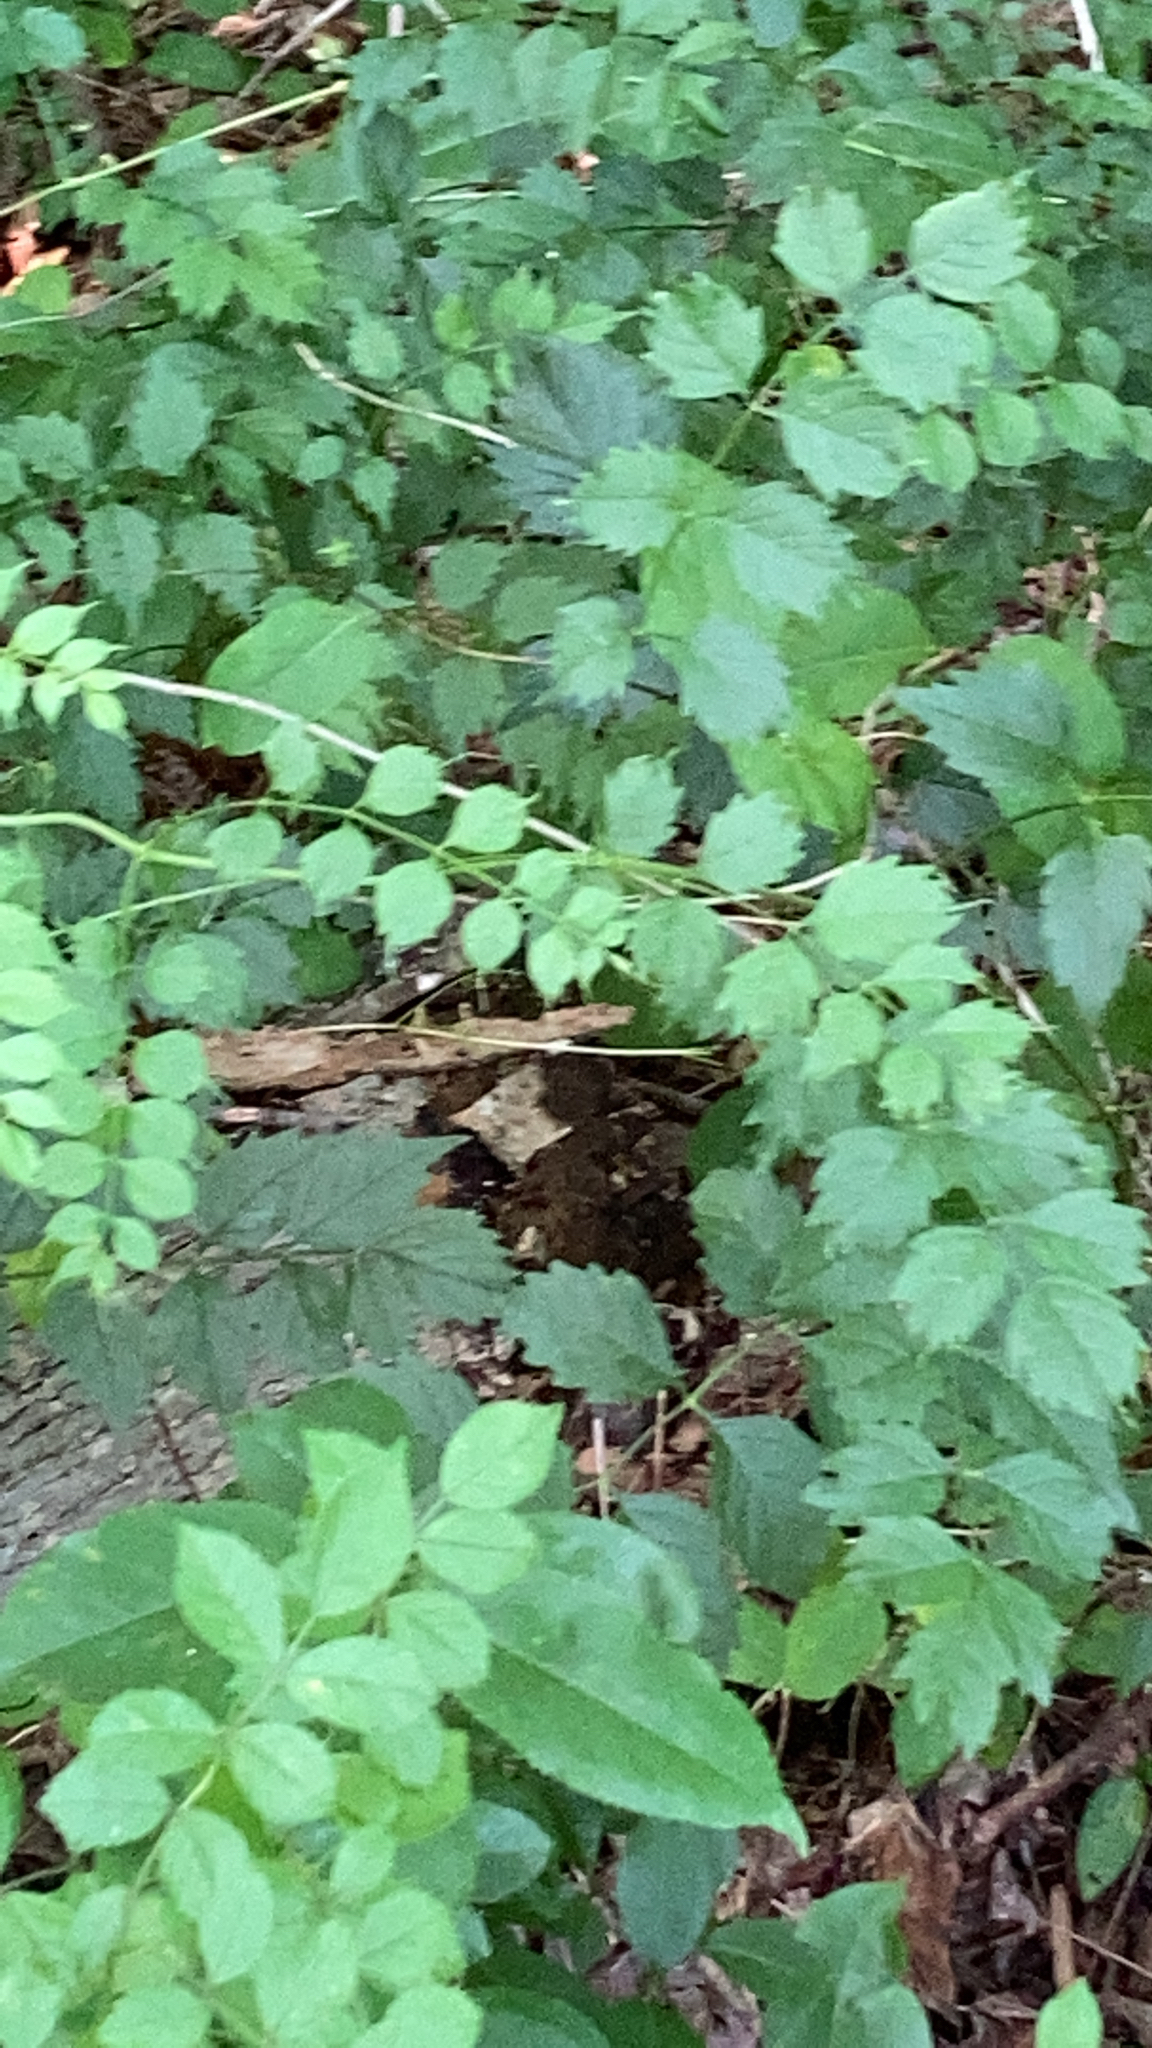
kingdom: Plantae
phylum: Tracheophyta
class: Magnoliopsida
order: Lamiales
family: Bignoniaceae
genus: Campsis
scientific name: Campsis radicans
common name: Trumpet-creeper
